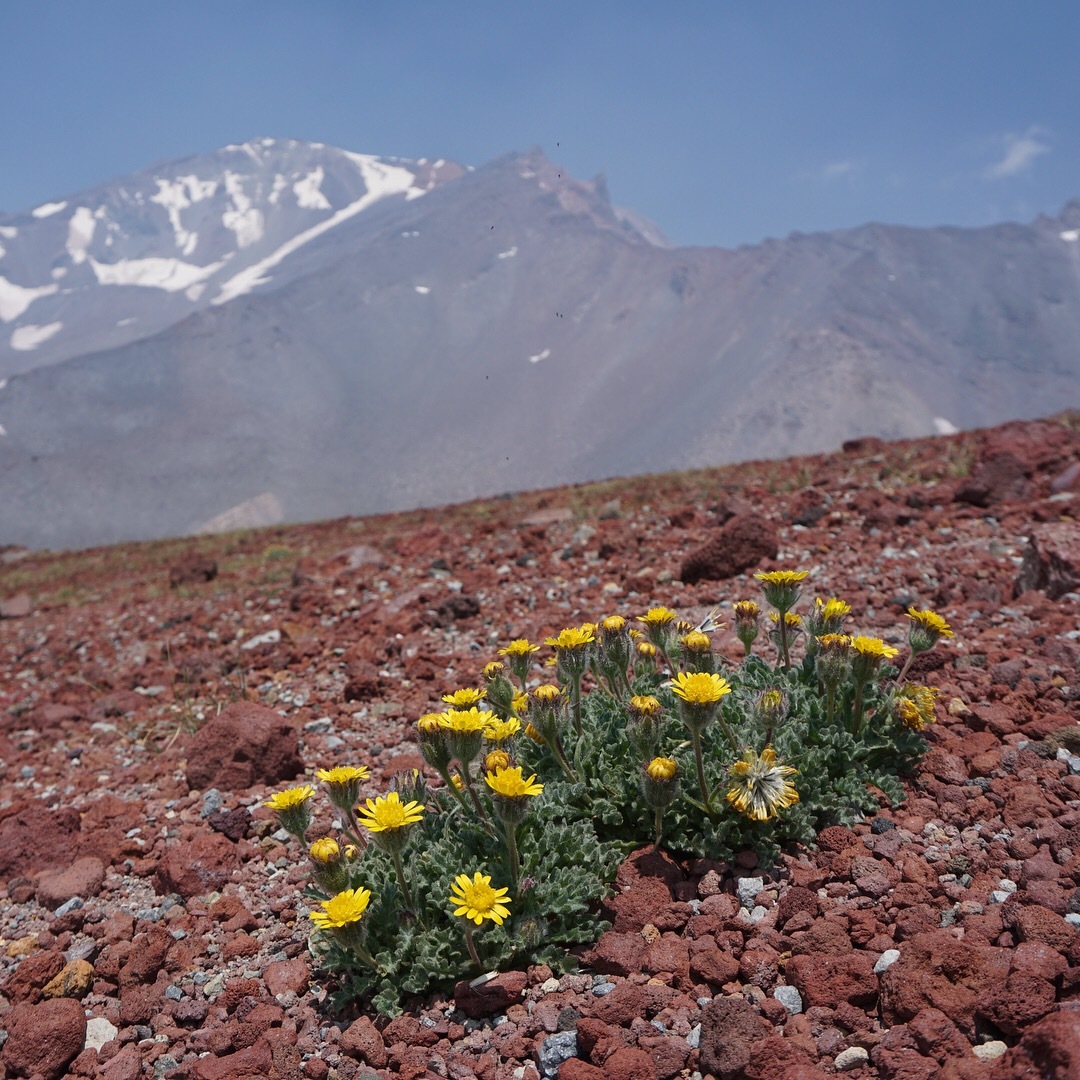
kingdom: Plantae
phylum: Tracheophyta
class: Magnoliopsida
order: Asterales
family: Asteraceae
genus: Hulsea
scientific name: Hulsea nana
